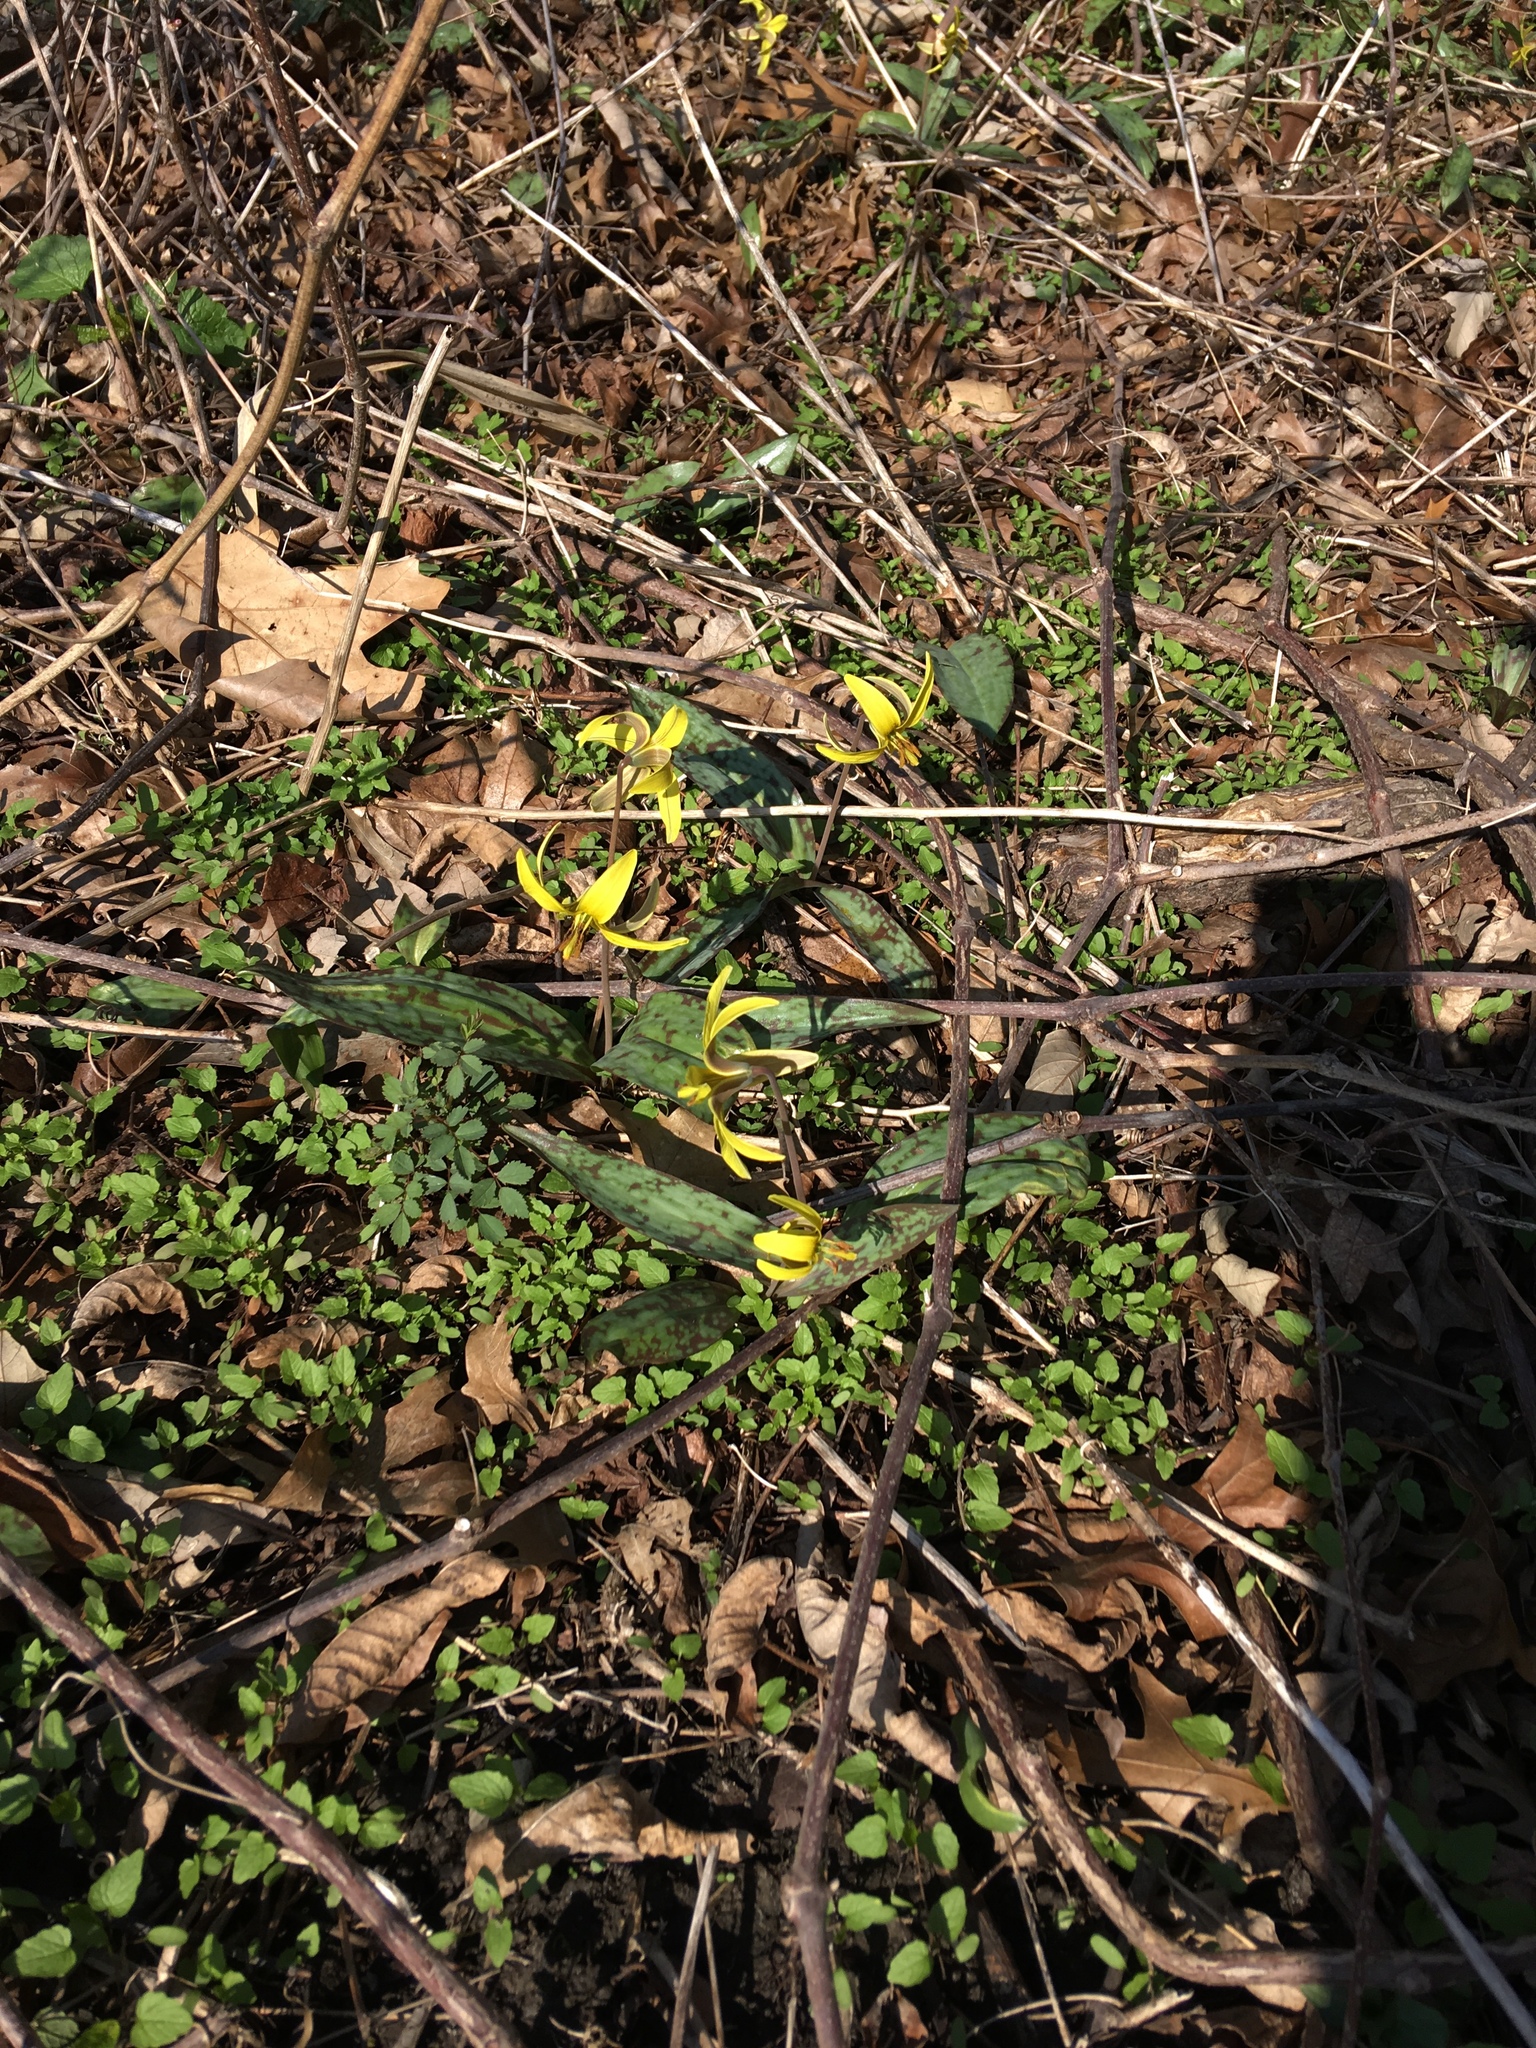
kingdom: Plantae
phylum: Tracheophyta
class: Liliopsida
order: Liliales
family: Liliaceae
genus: Erythronium
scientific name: Erythronium americanum
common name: Yellow adder's-tongue
